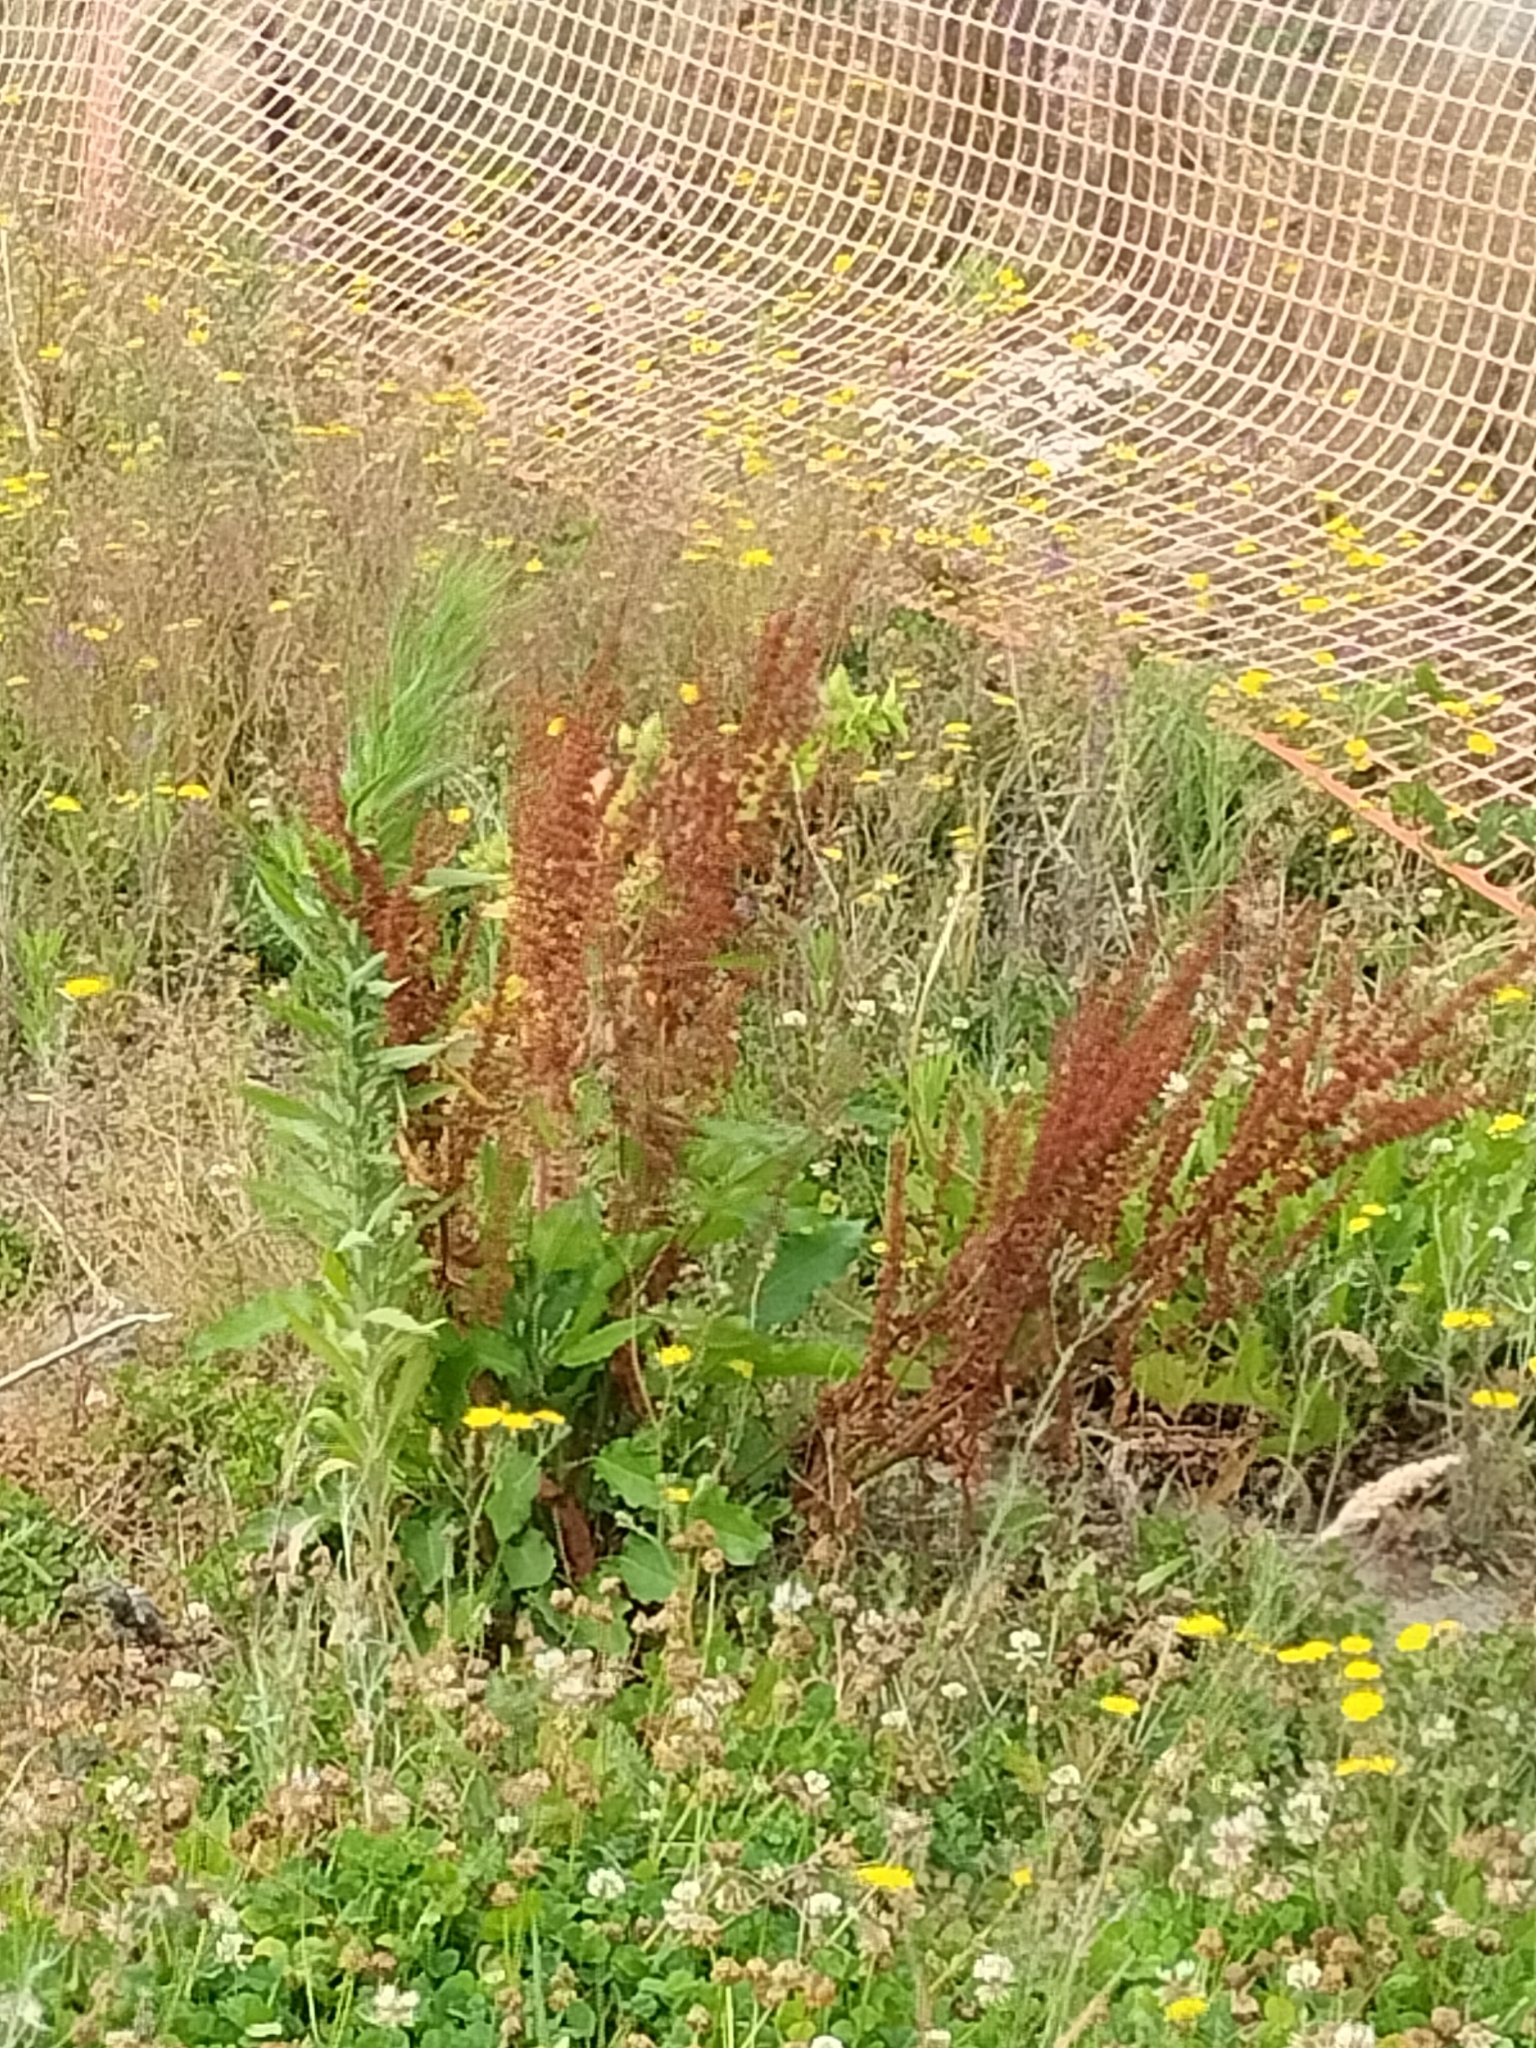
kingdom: Plantae
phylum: Tracheophyta
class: Magnoliopsida
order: Caryophyllales
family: Polygonaceae
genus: Rumex
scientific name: Rumex obtusifolius
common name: Bitter dock
